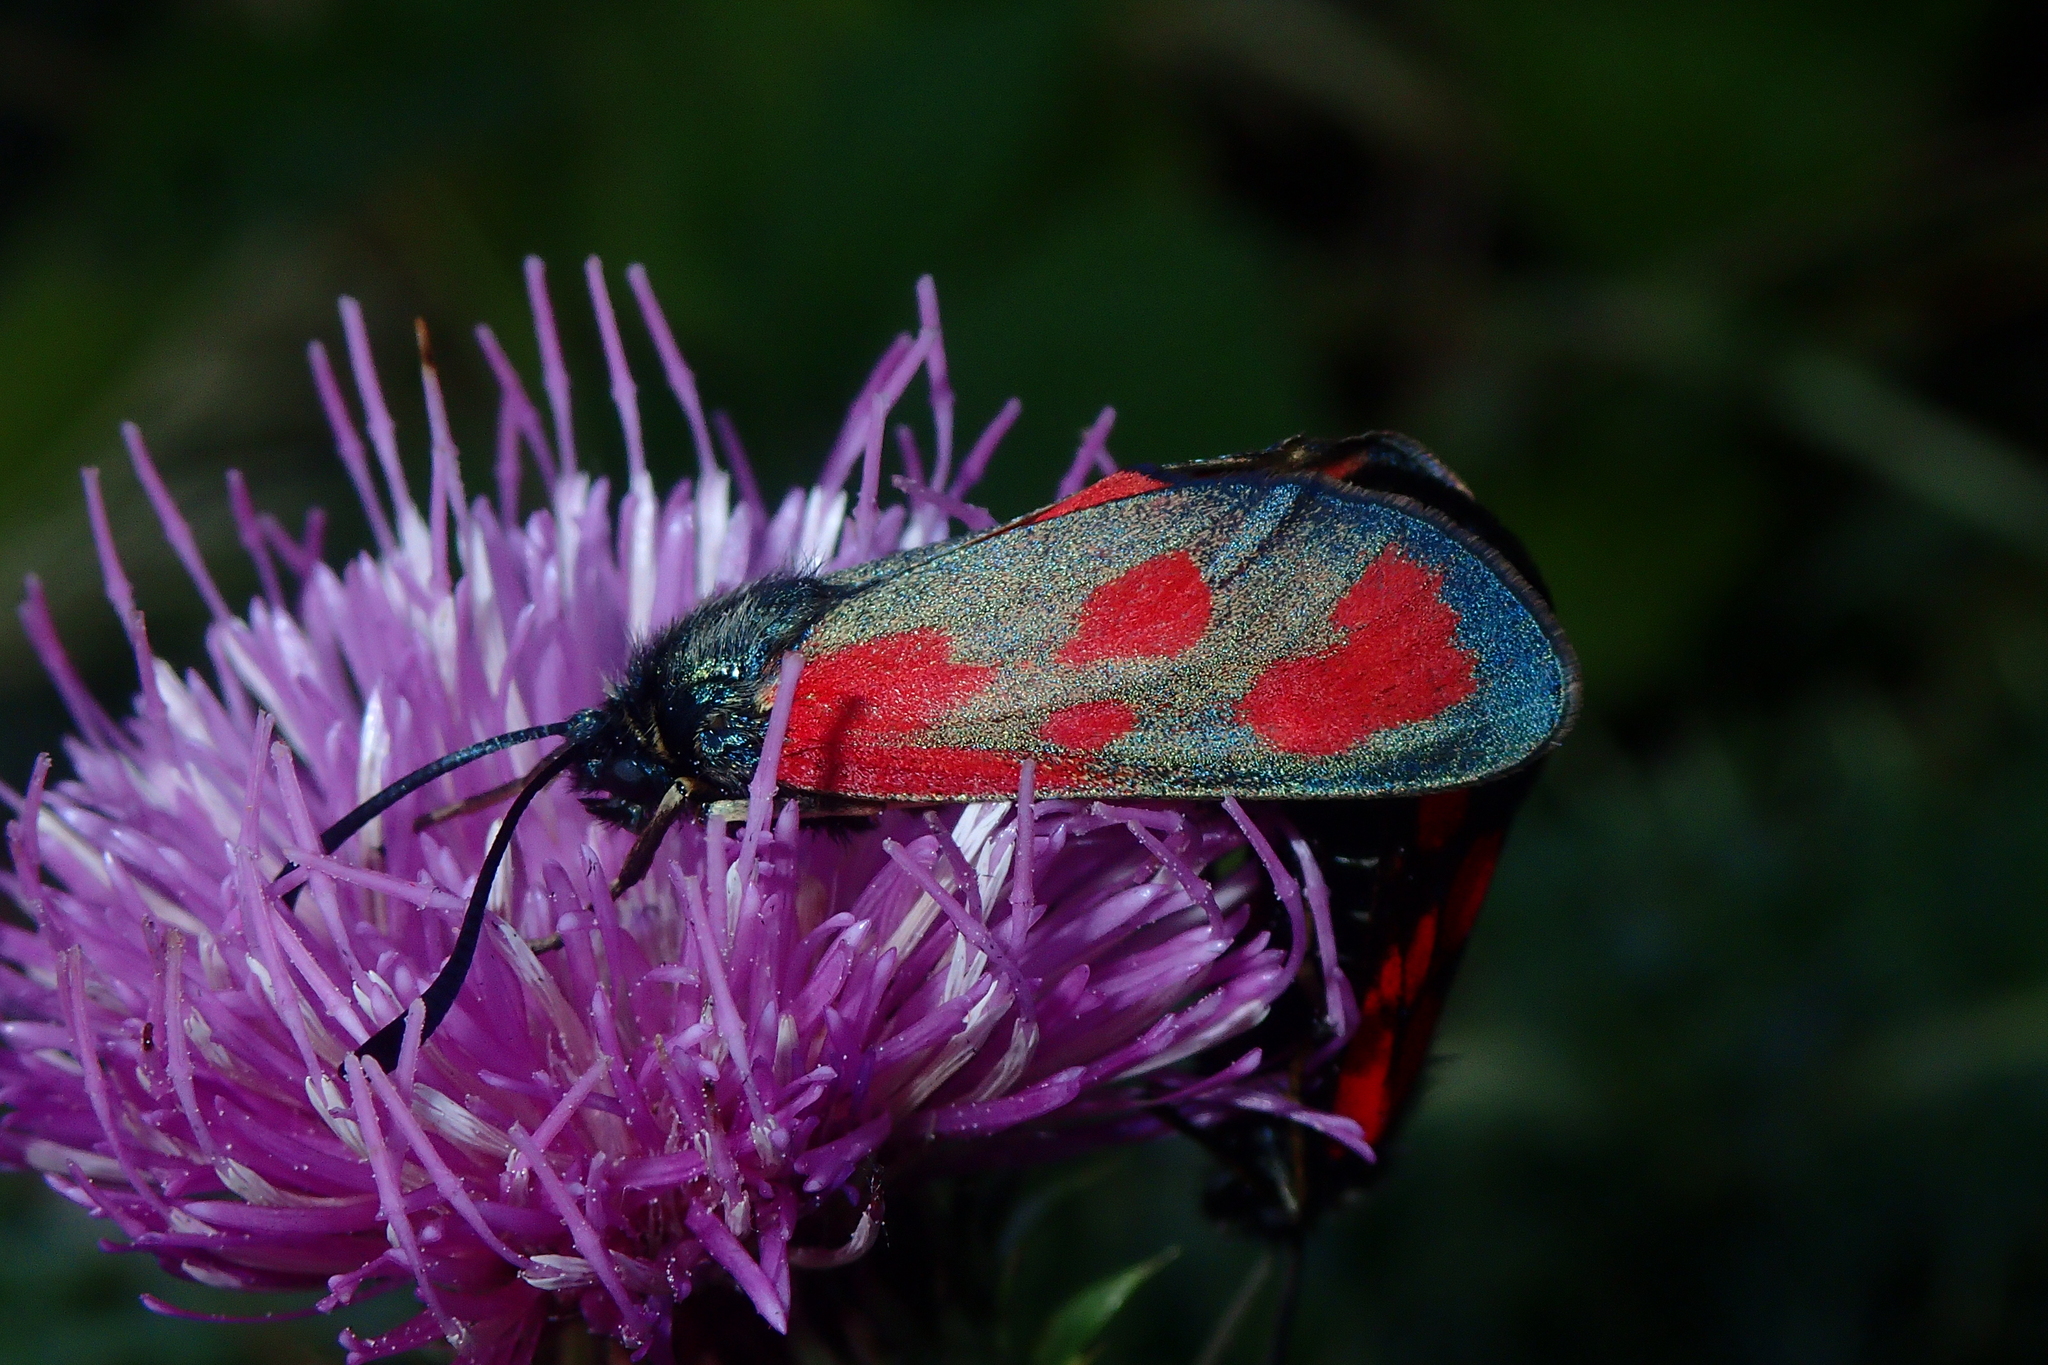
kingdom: Animalia
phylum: Arthropoda
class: Insecta
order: Lepidoptera
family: Zygaenidae
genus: Zygaena
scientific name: Zygaena loti
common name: Slender scotch burnet
